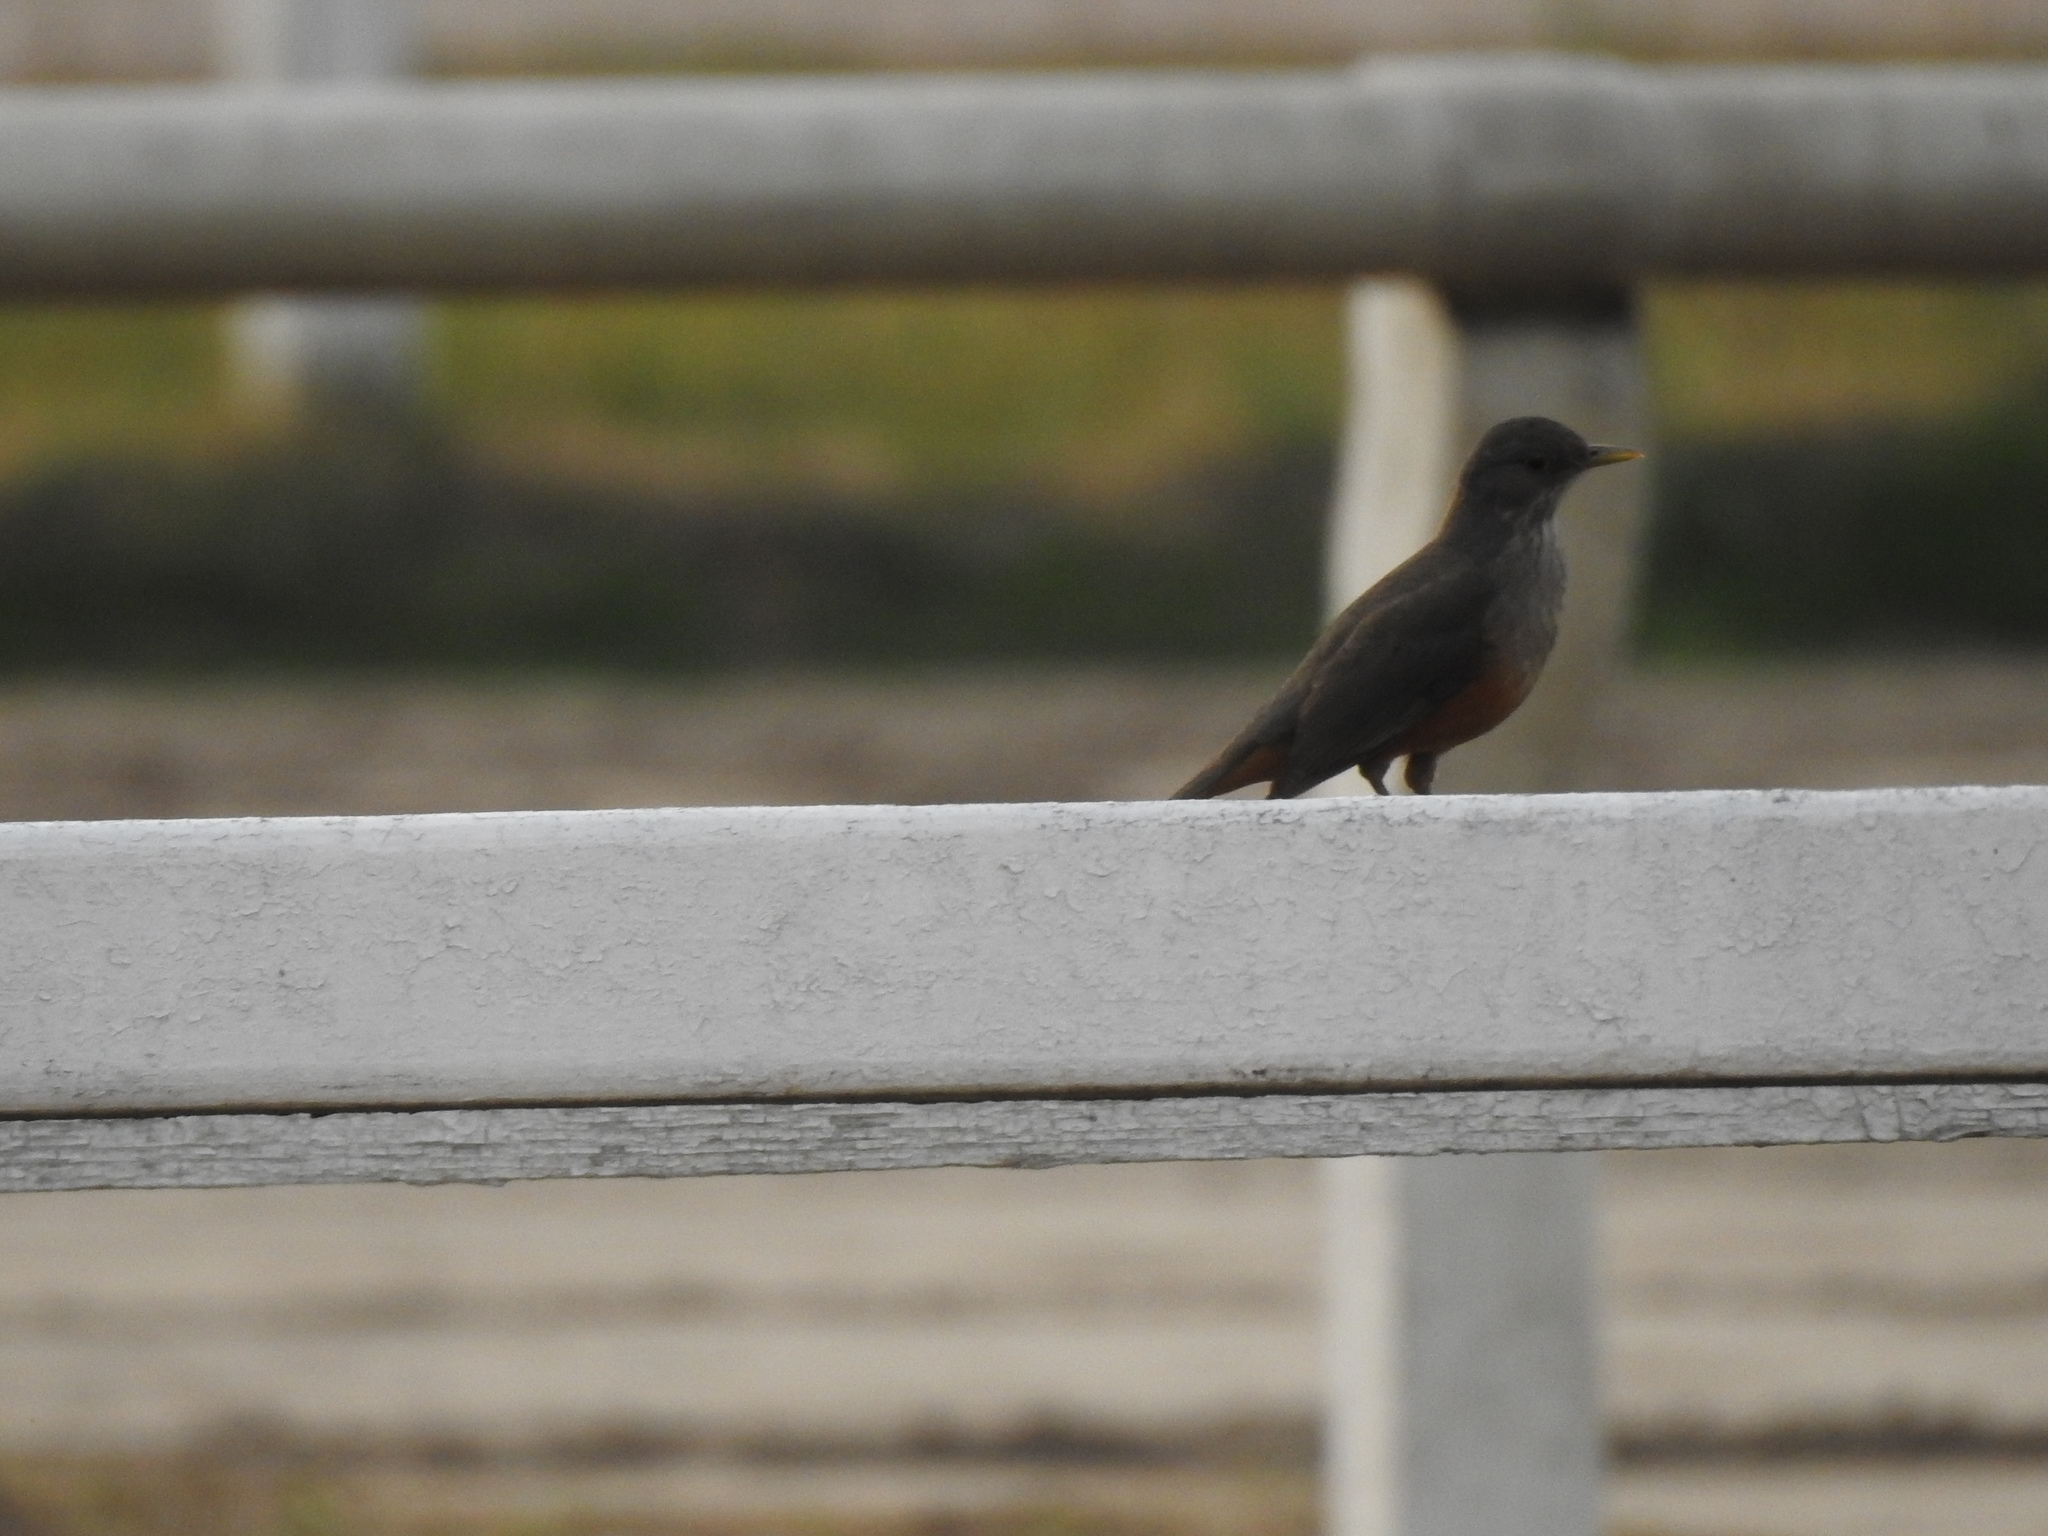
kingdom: Animalia
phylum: Chordata
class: Aves
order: Passeriformes
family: Turdidae
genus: Turdus
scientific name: Turdus rufiventris
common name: Rufous-bellied thrush
